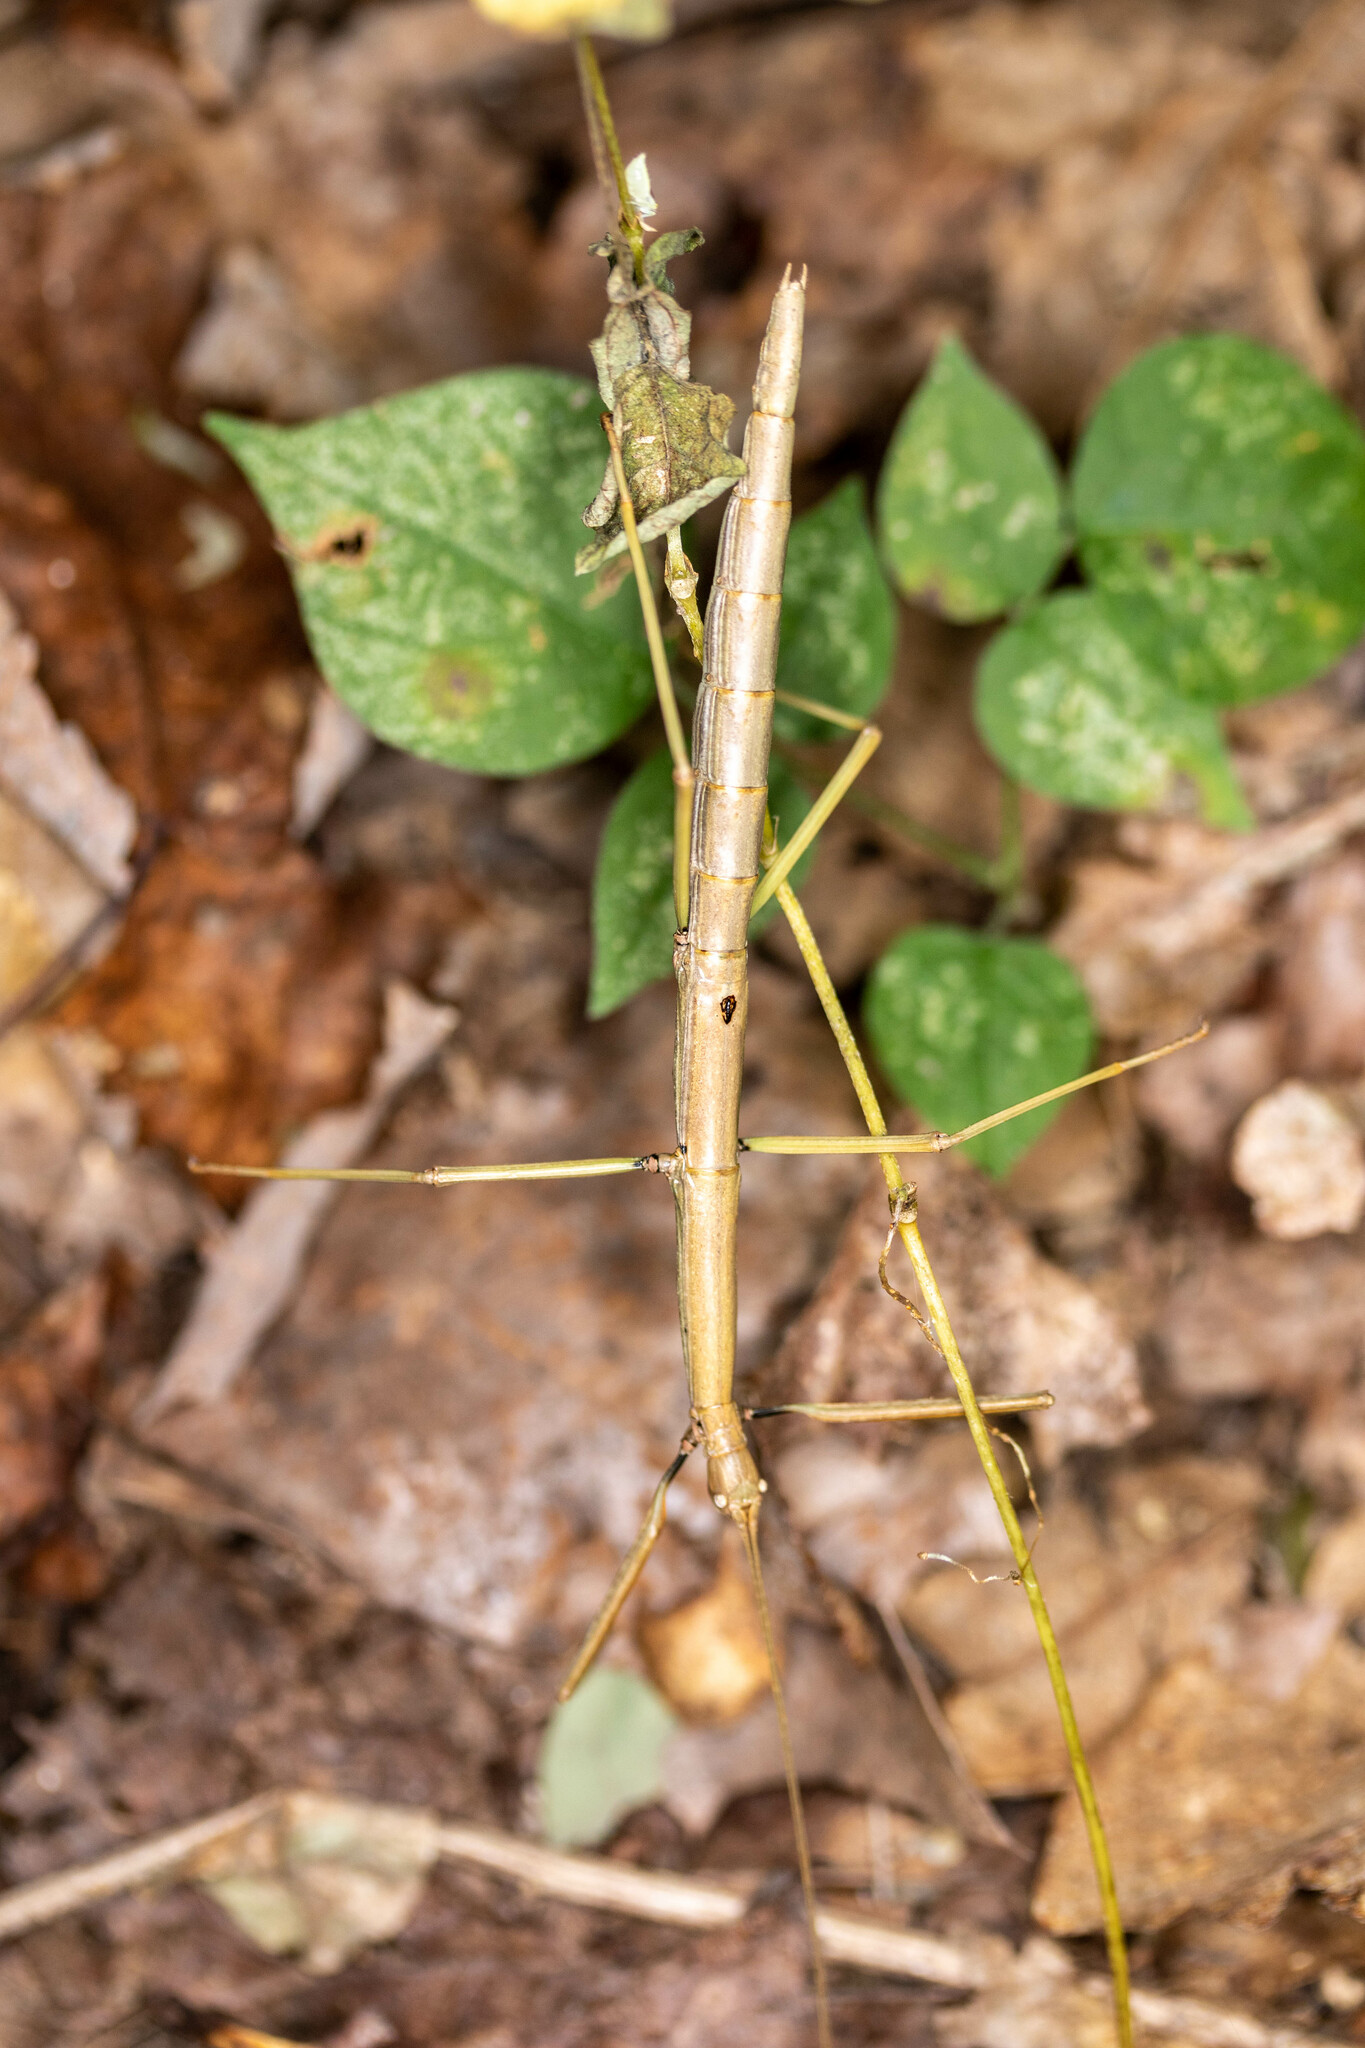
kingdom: Animalia
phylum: Arthropoda
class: Insecta
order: Phasmida
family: Diapheromeridae
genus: Diapheromera
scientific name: Diapheromera femorata
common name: Common american walkingstick
